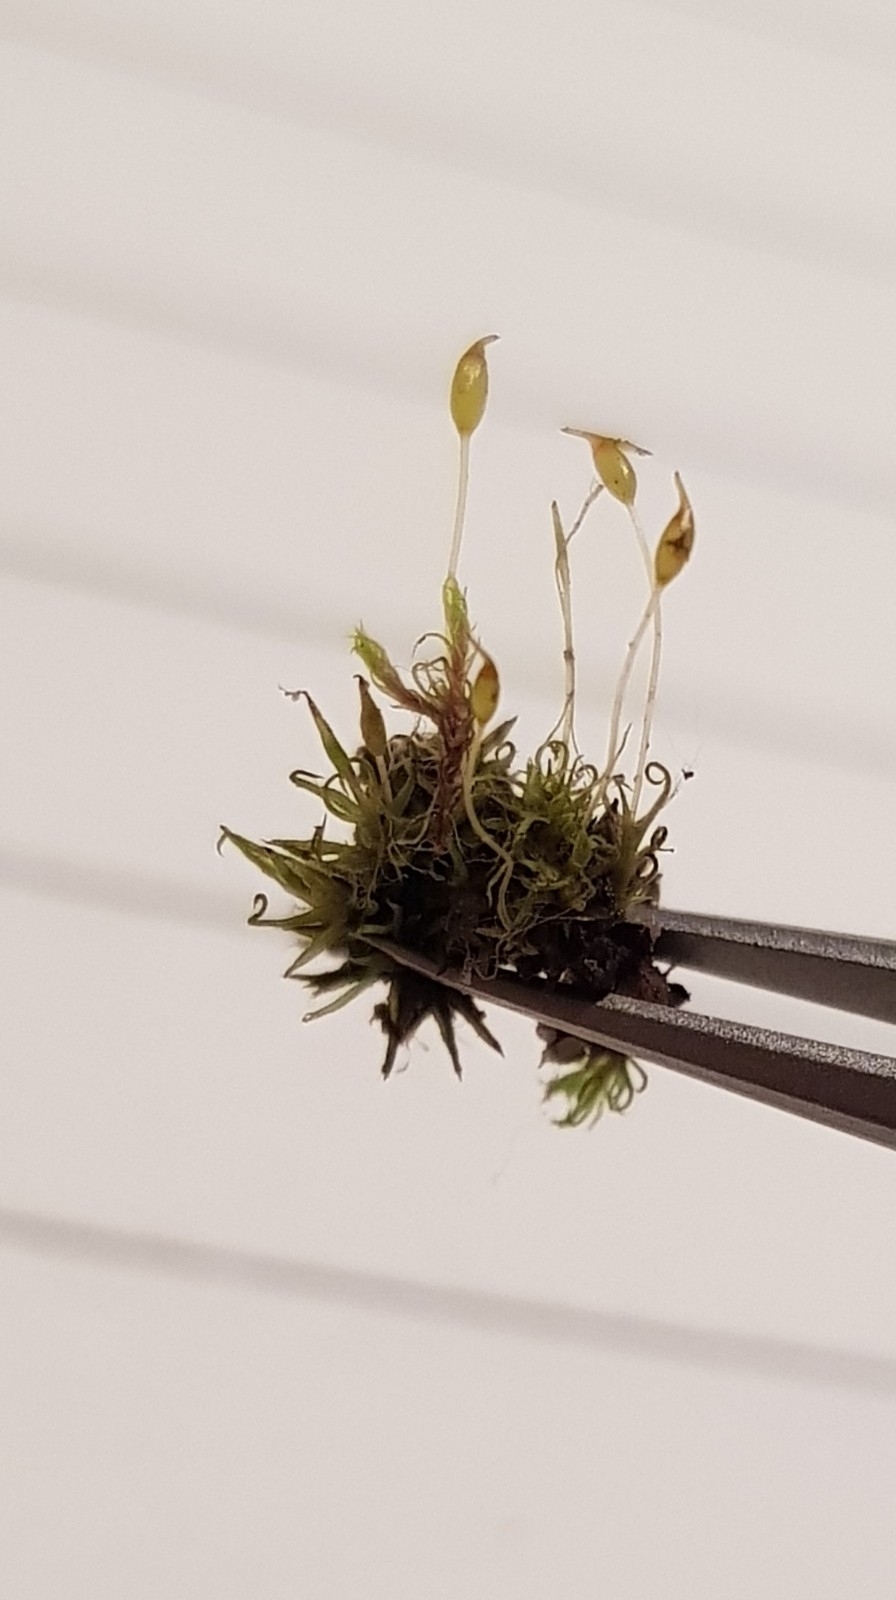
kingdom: Plantae
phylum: Bryophyta
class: Bryopsida
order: Pottiales
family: Pottiaceae
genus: Weissia
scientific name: Weissia controversa
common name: Green-tufted stubble moss
